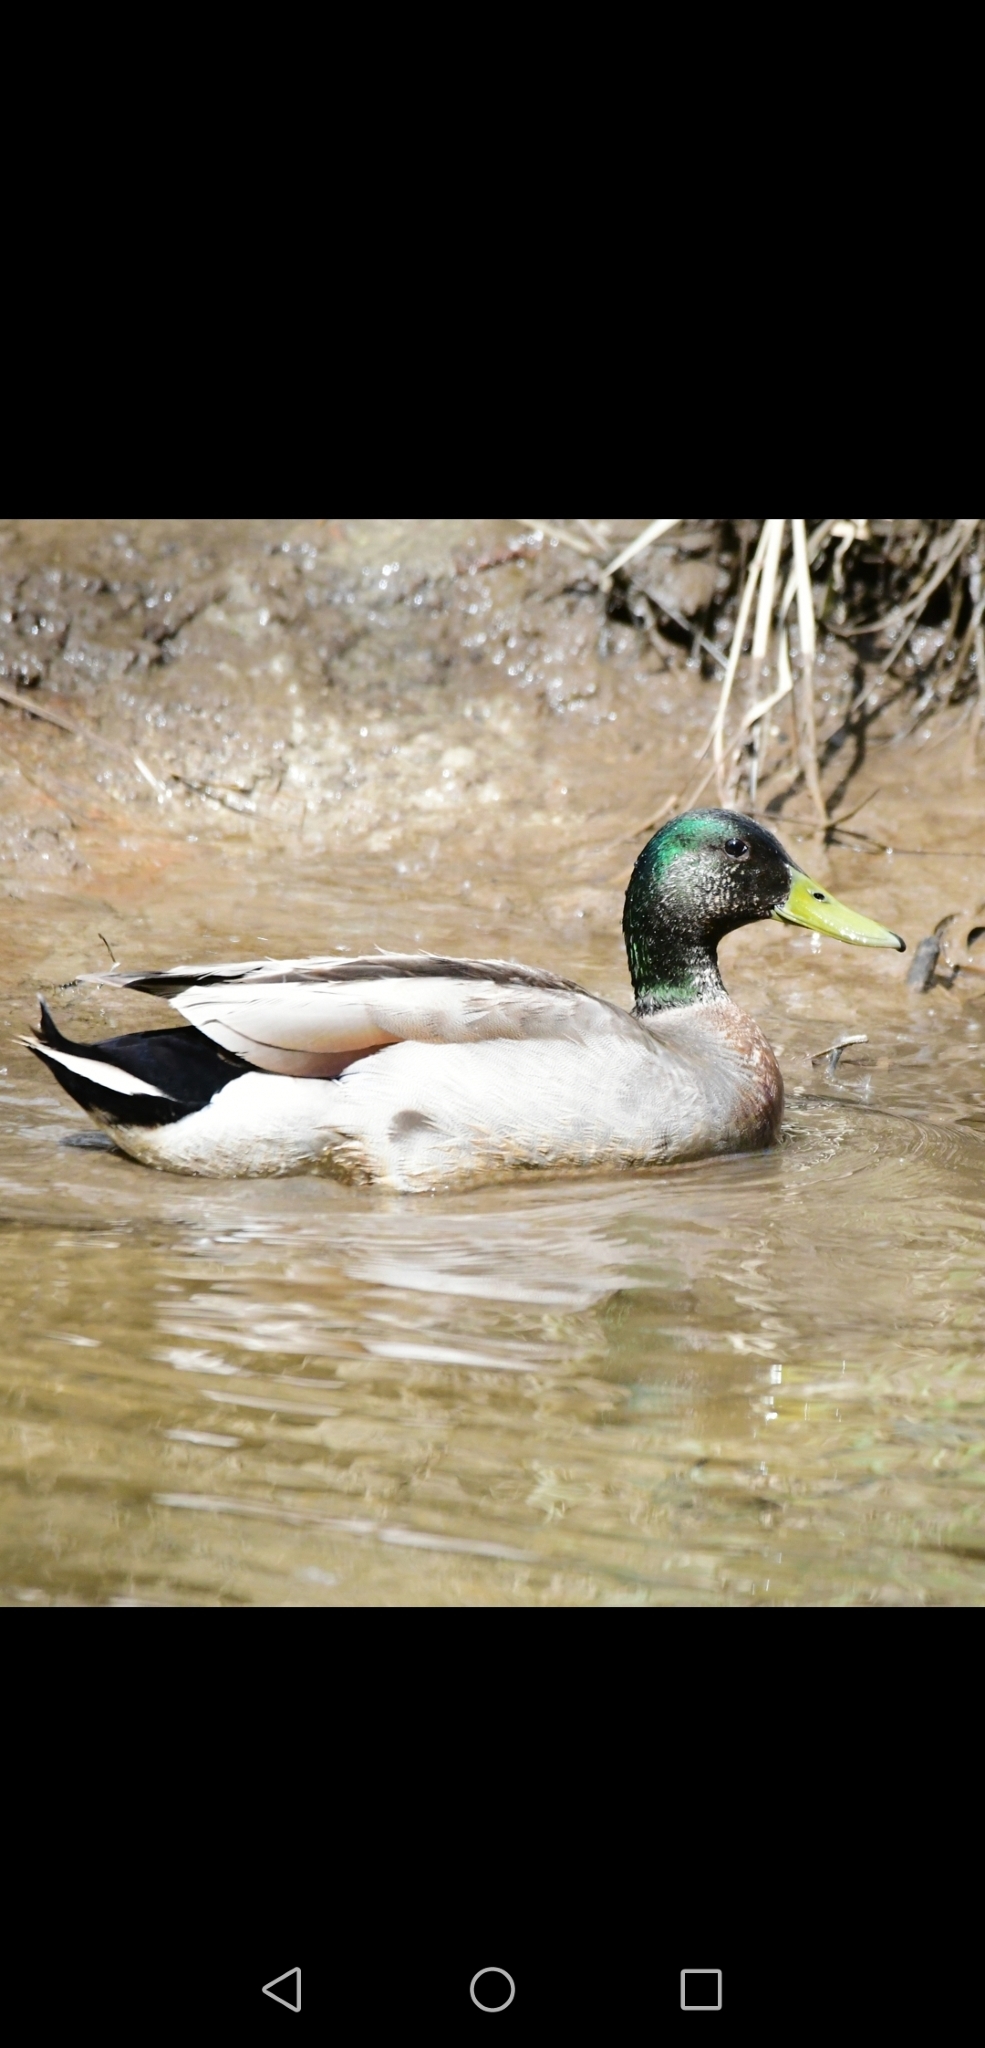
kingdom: Animalia
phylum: Chordata
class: Aves
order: Anseriformes
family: Anatidae
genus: Anas
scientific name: Anas platyrhynchos
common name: Mallard
